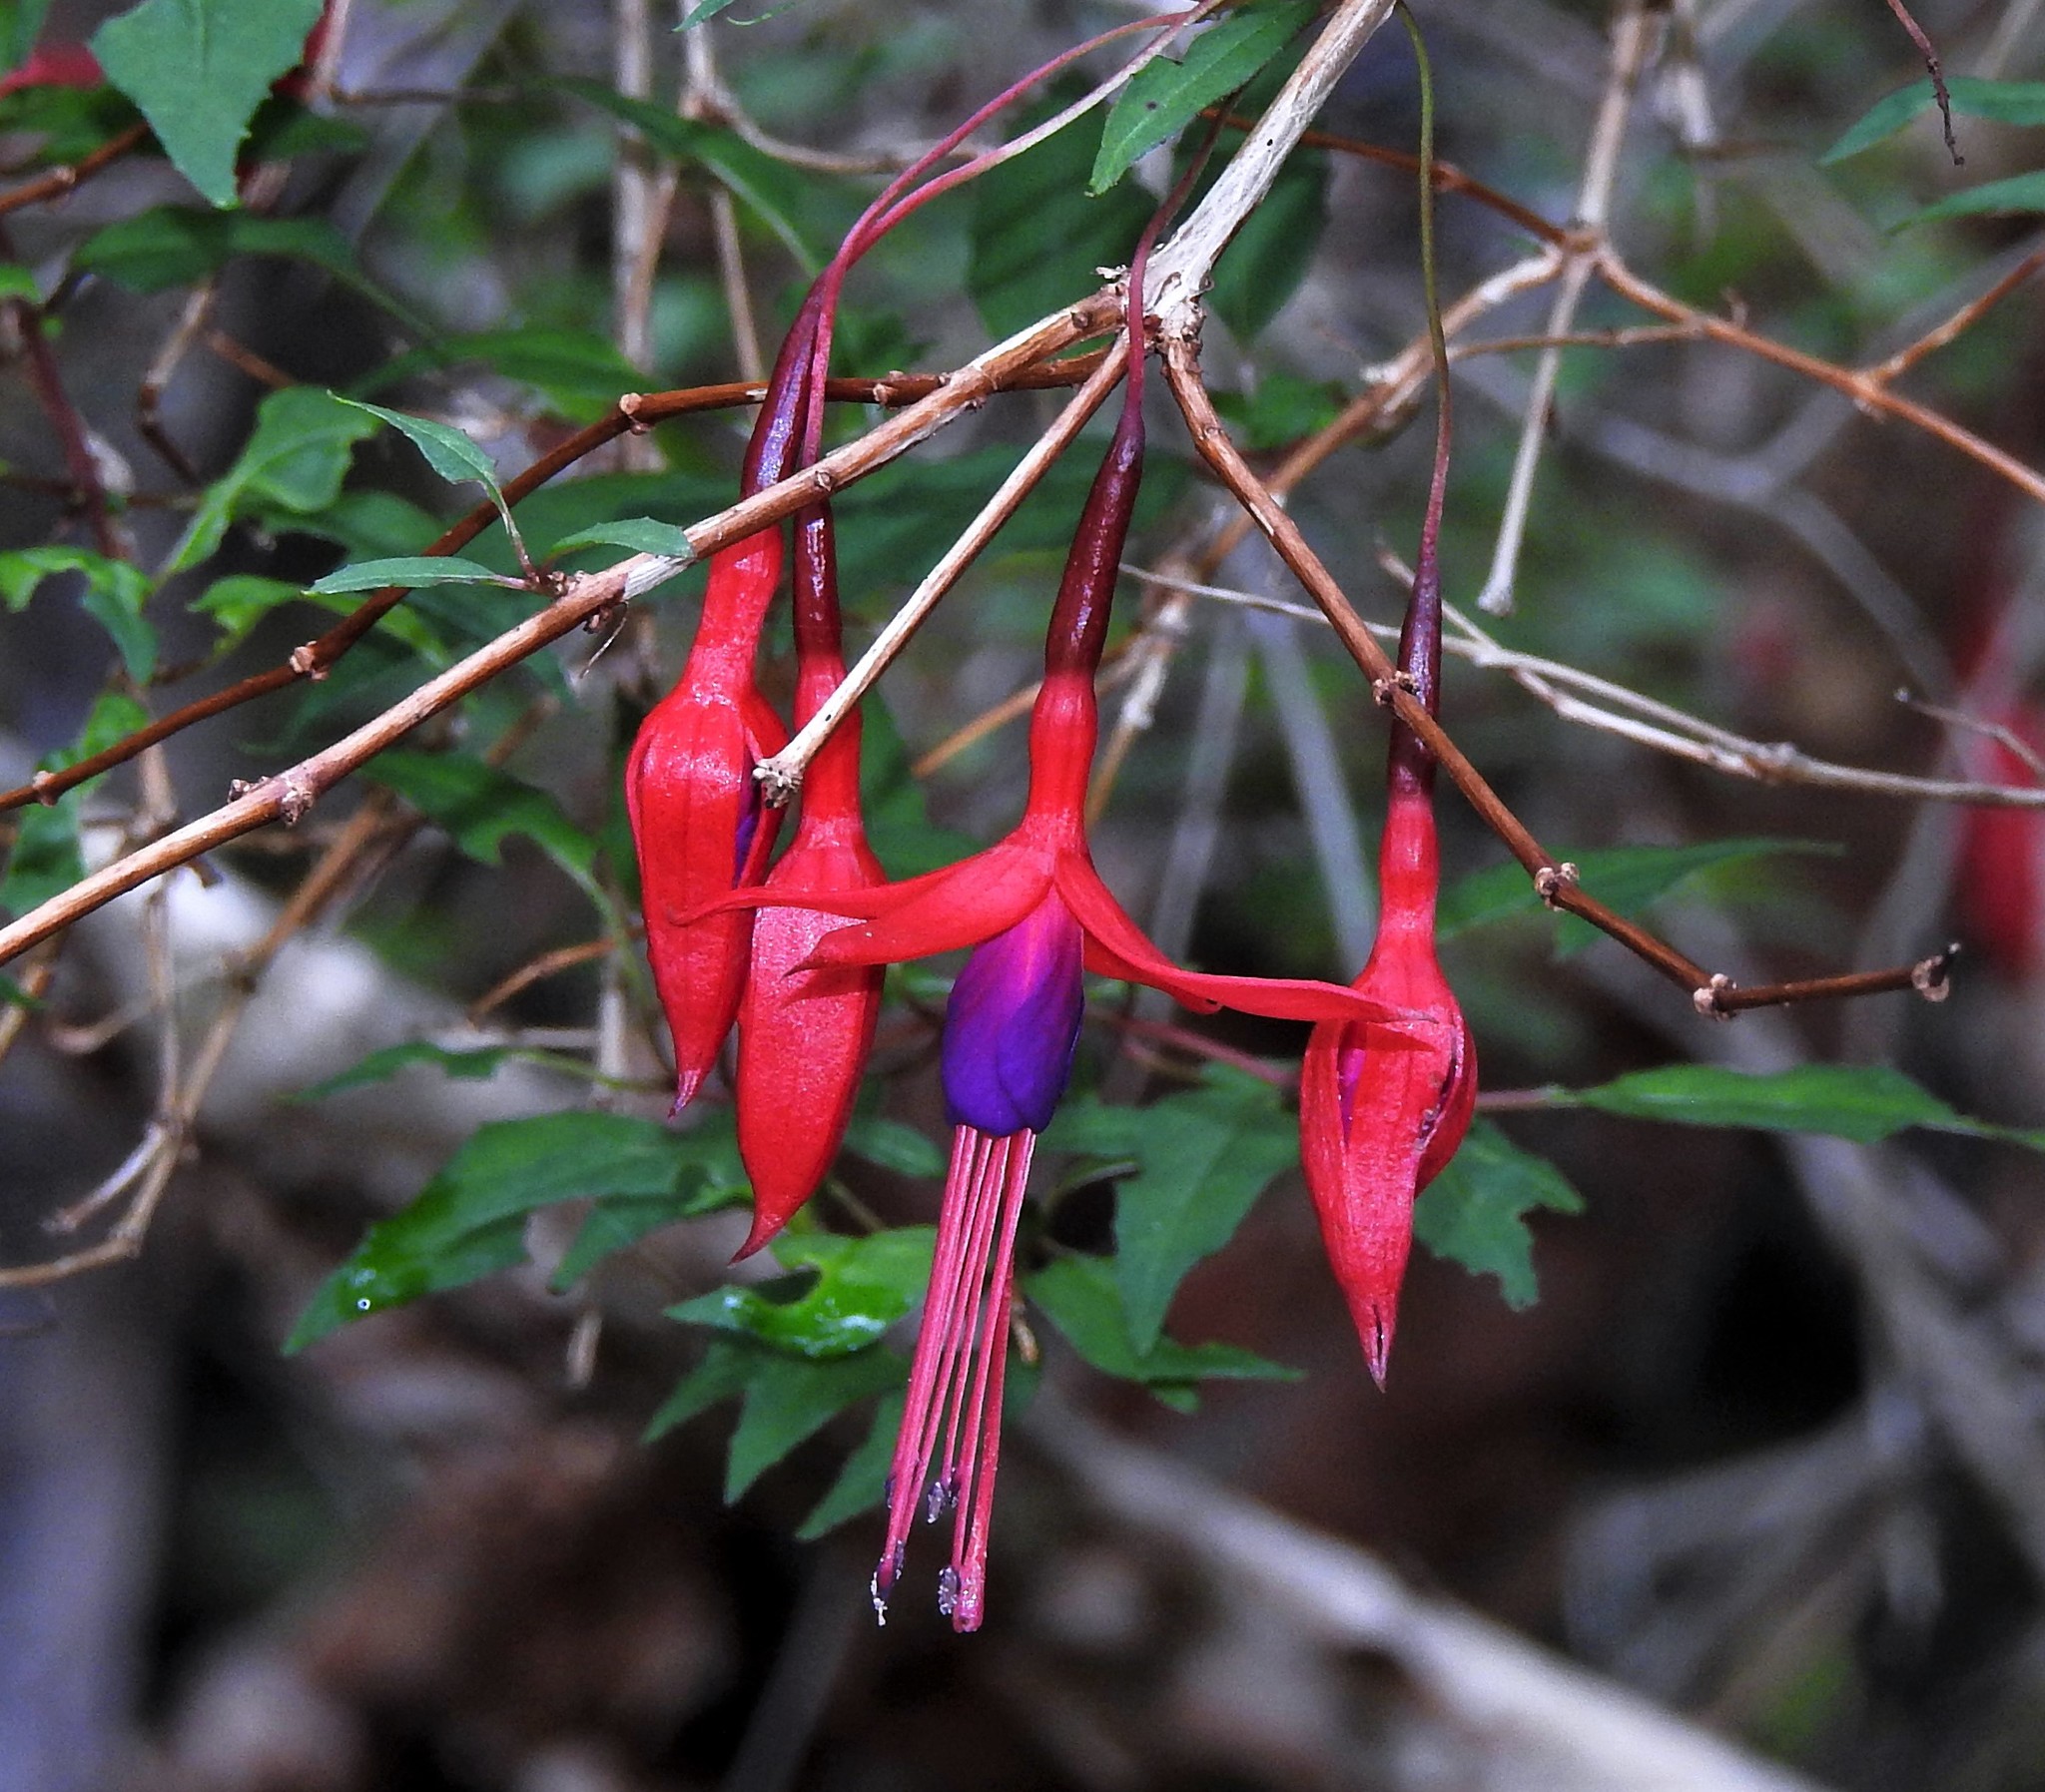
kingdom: Plantae
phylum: Tracheophyta
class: Magnoliopsida
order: Myrtales
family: Onagraceae
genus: Fuchsia
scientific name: Fuchsia magellanica
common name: Hardy fuchsia
